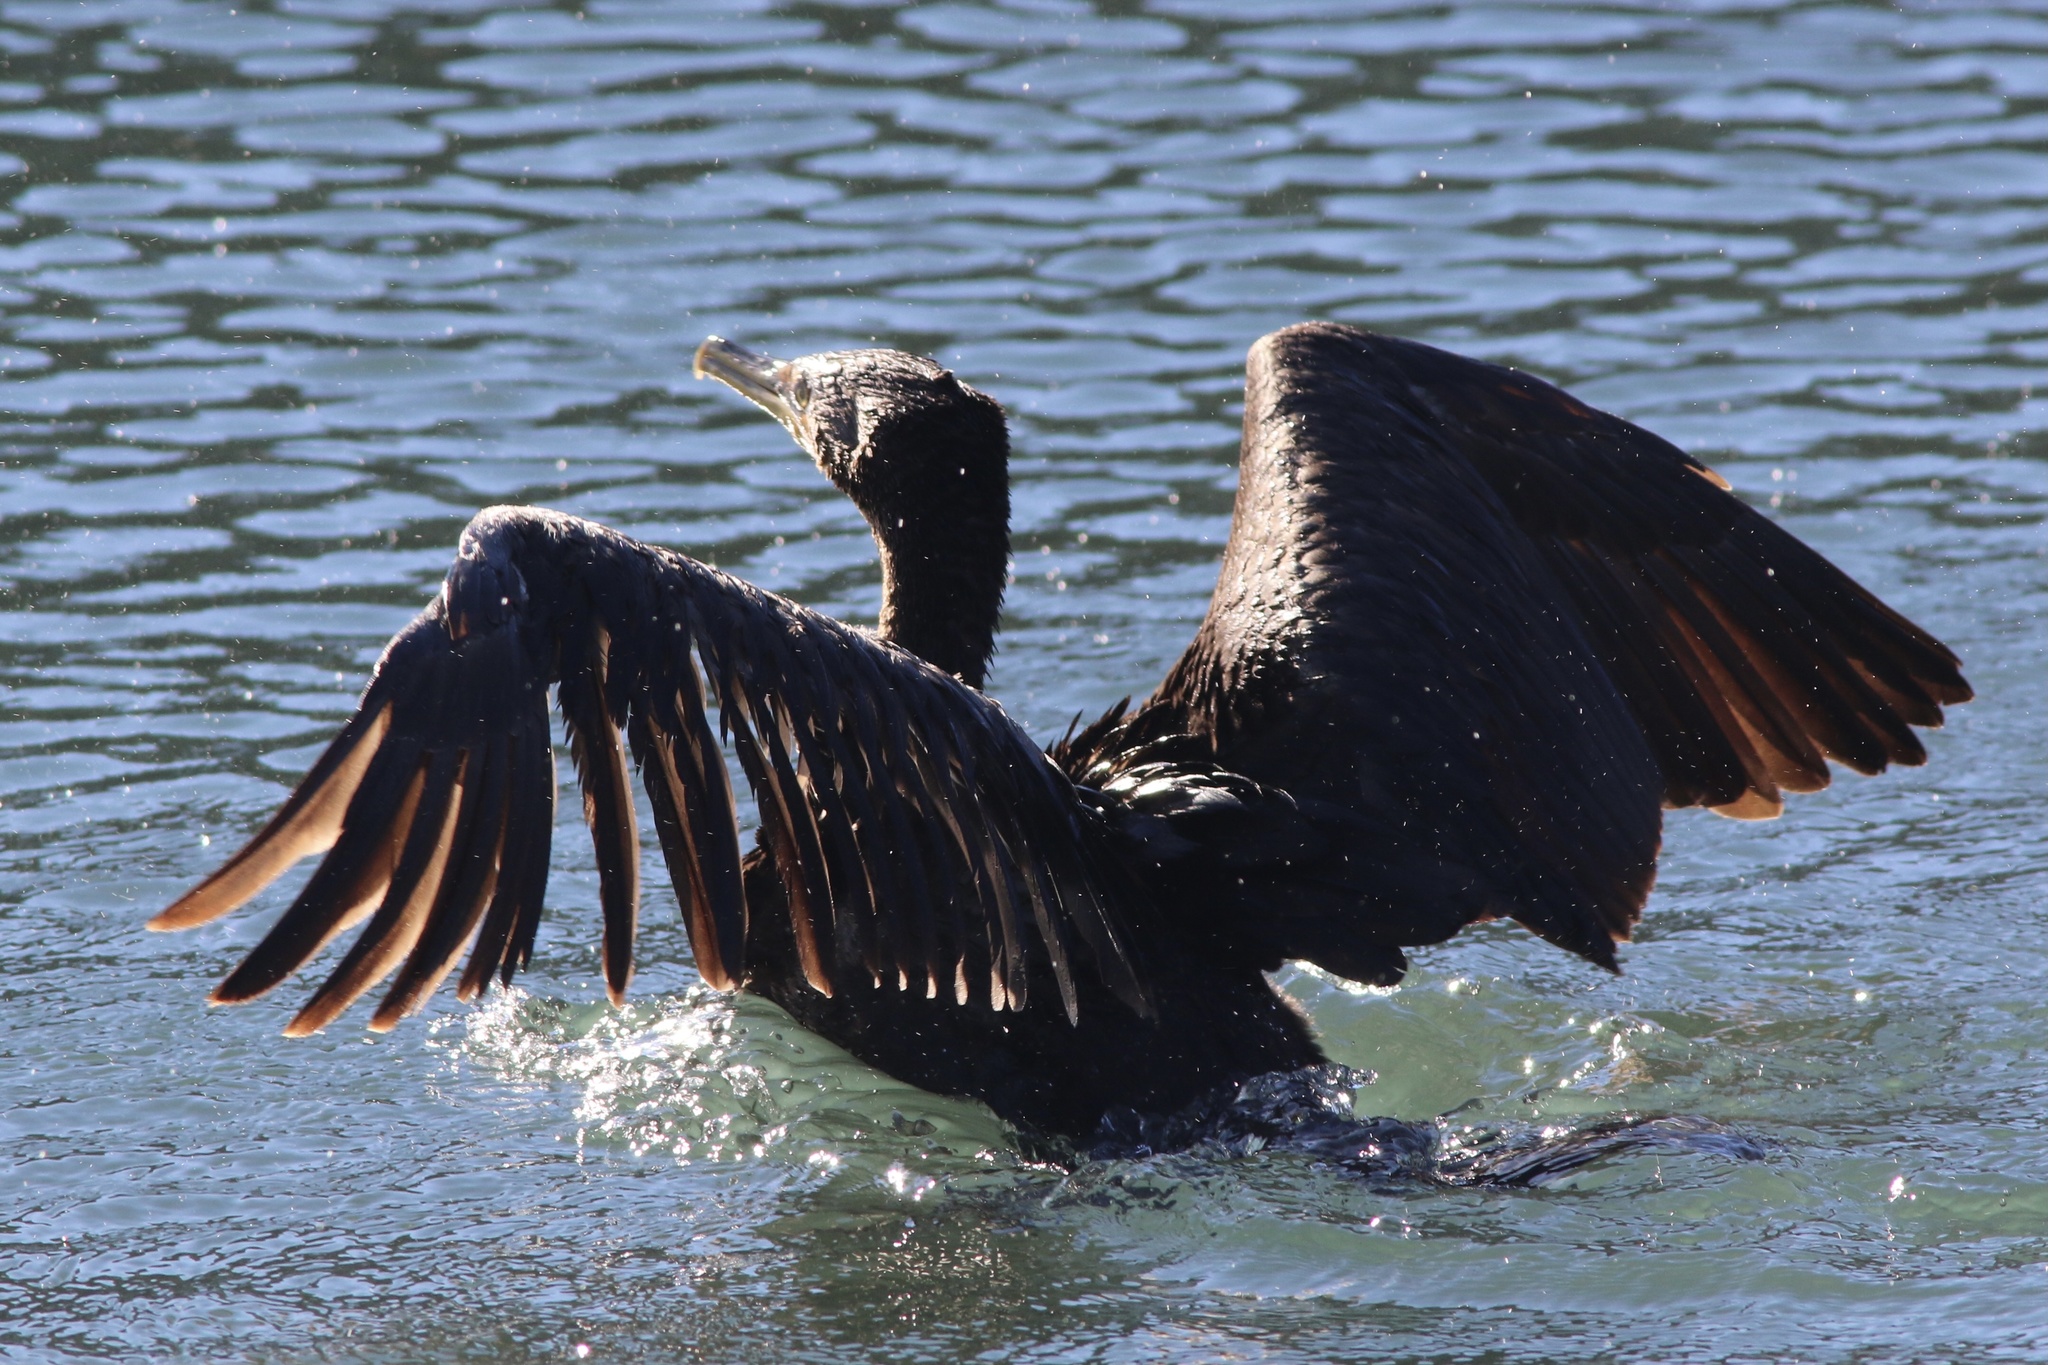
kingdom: Animalia
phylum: Chordata
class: Aves
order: Suliformes
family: Phalacrocoracidae
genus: Phalacrocorax
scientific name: Phalacrocorax auritus
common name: Double-crested cormorant
